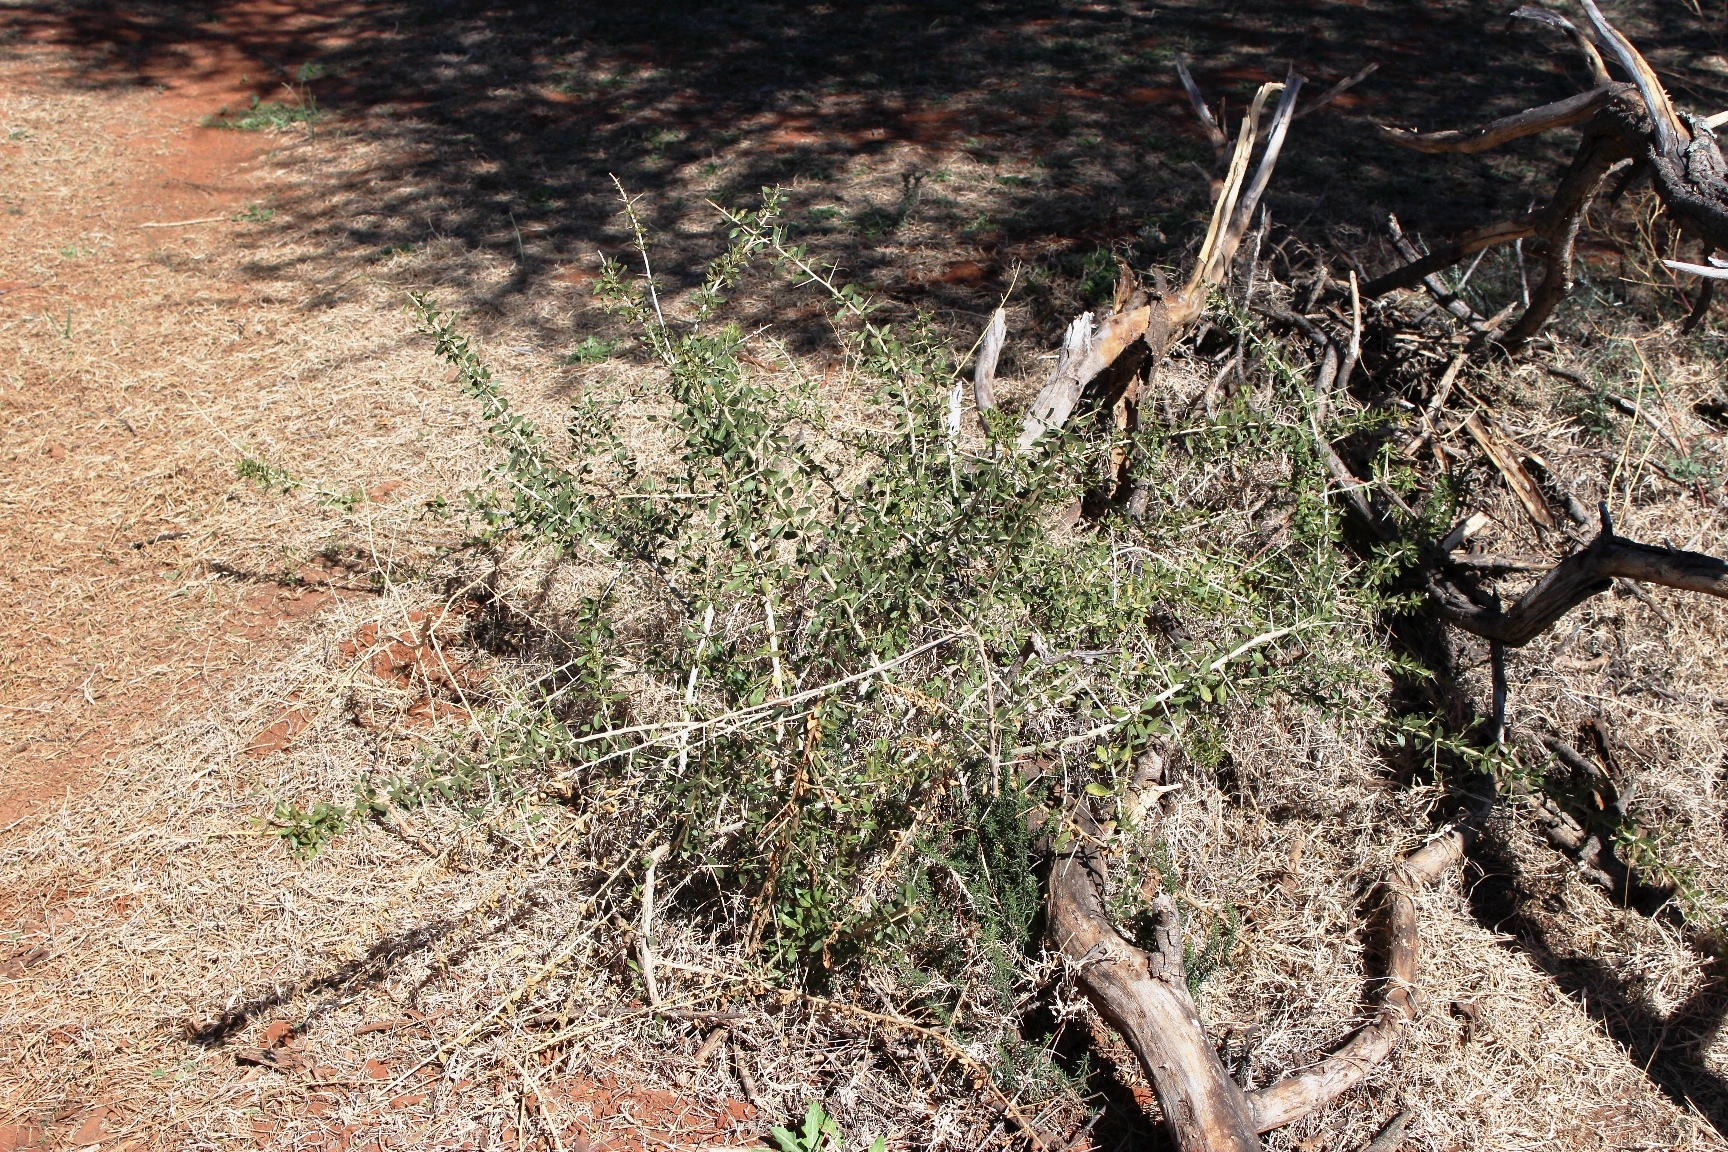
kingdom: Plantae
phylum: Tracheophyta
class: Magnoliopsida
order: Solanales
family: Solanaceae
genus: Lycium
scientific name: Lycium hirsutum
